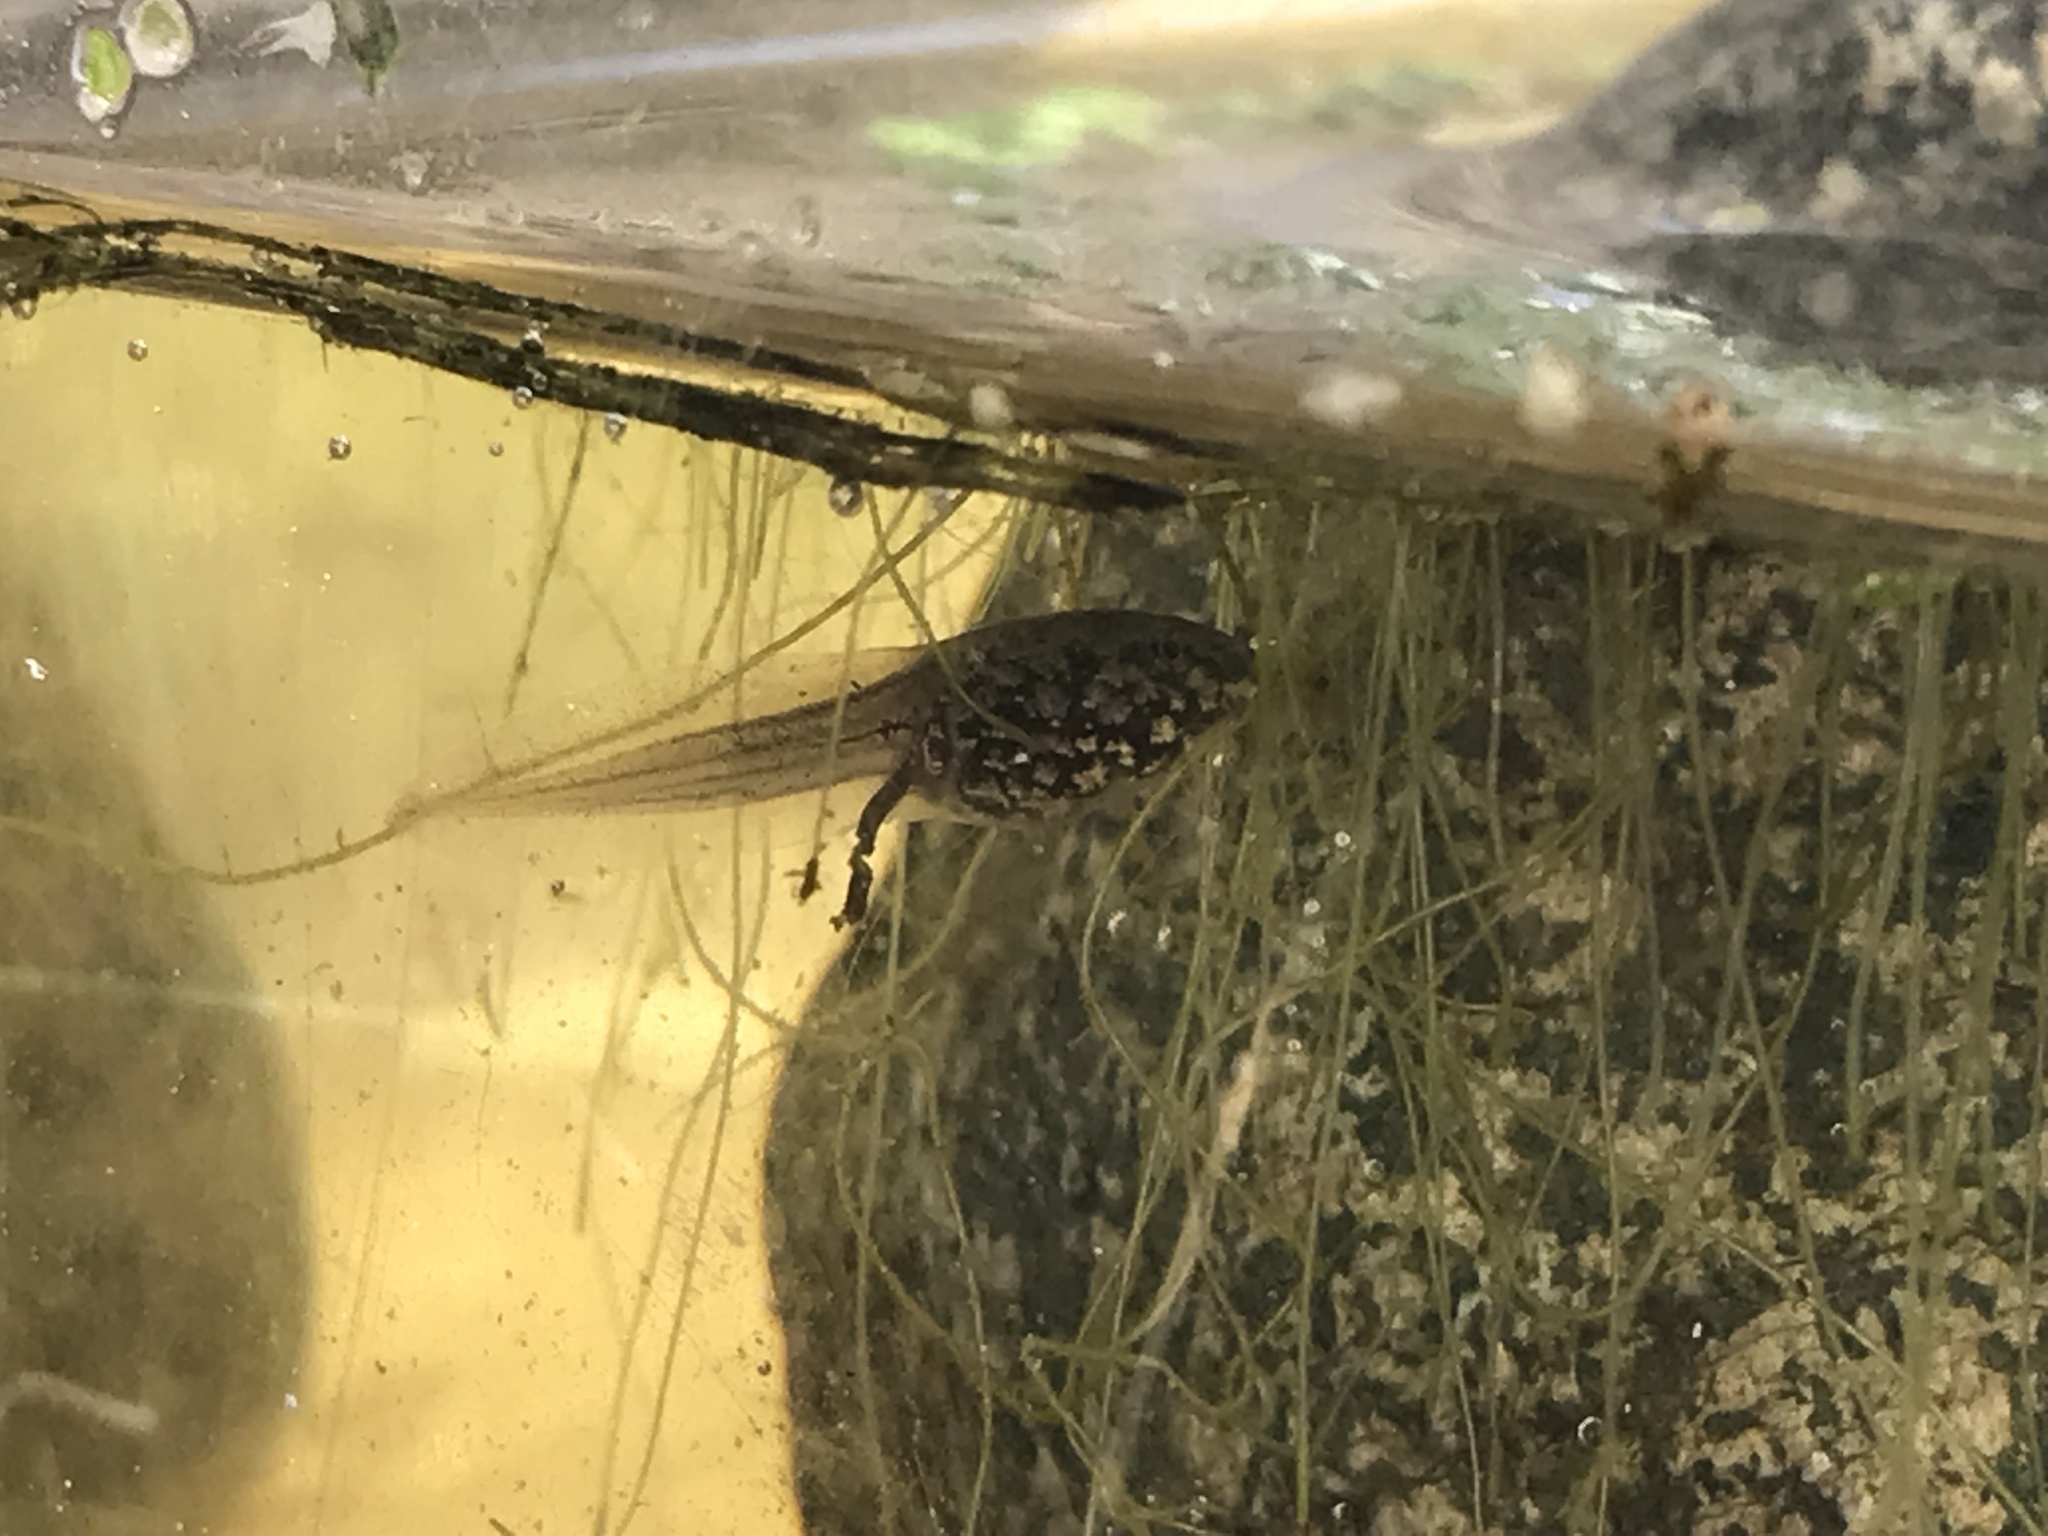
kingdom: Animalia
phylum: Chordata
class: Amphibia
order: Anura
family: Ranidae
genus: Lithobates
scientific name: Lithobates sylvaticus
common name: Wood frog
